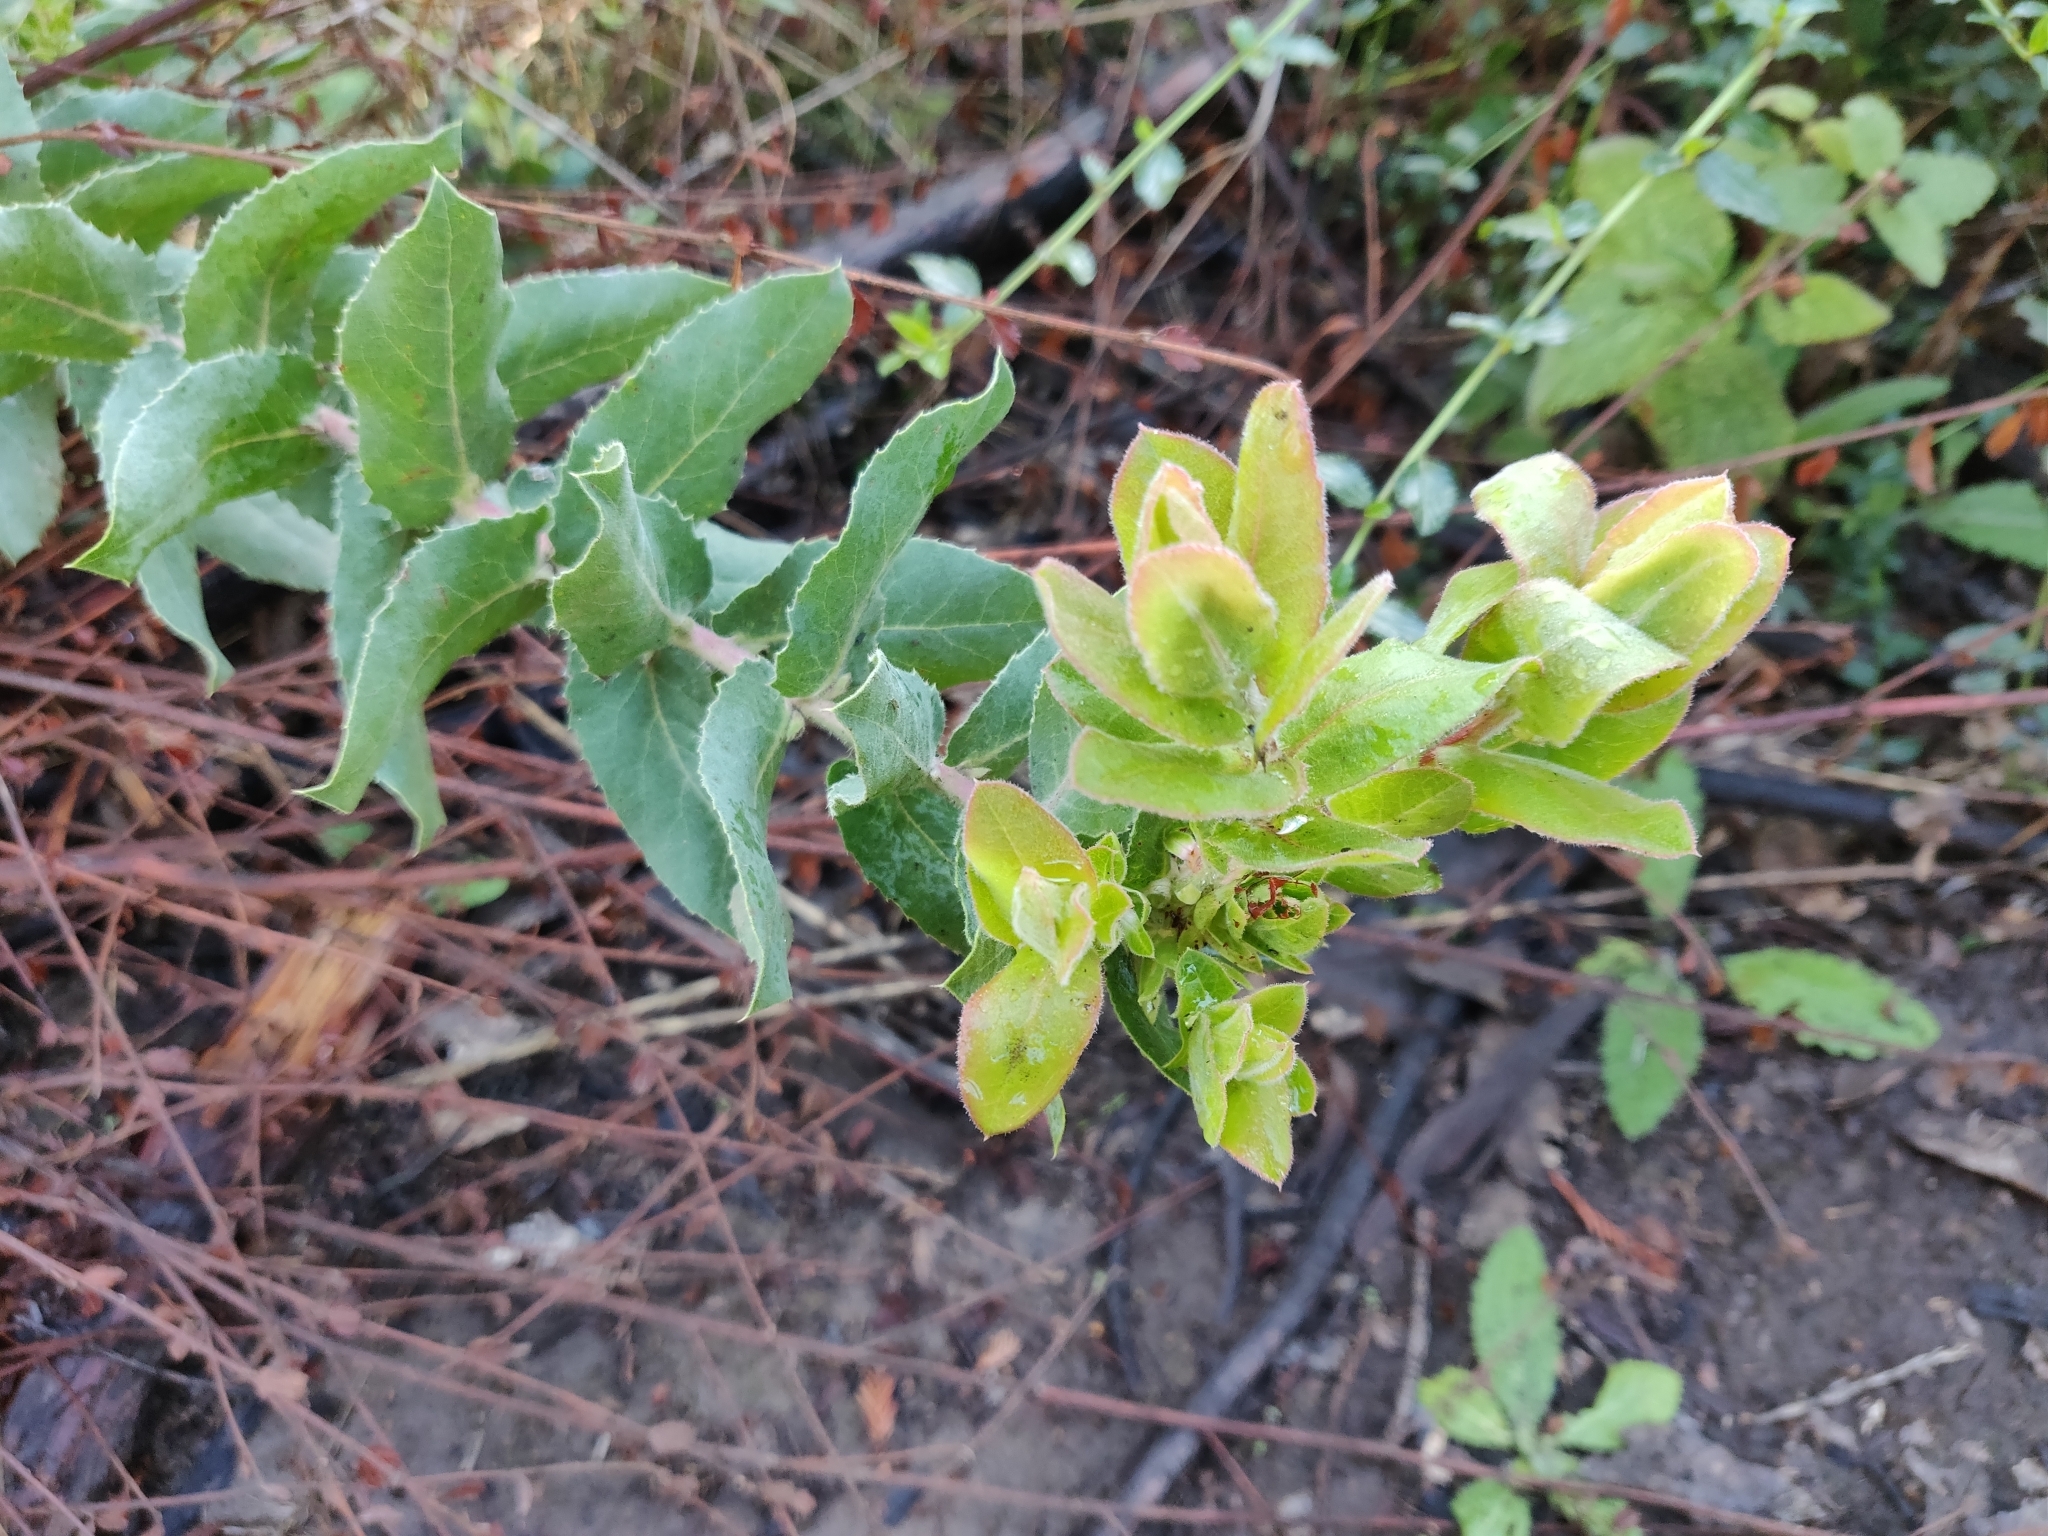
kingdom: Plantae
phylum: Tracheophyta
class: Magnoliopsida
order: Ericales
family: Ericaceae
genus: Arctostaphylos
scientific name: Arctostaphylos andersonii
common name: Santa cruz manzanita
